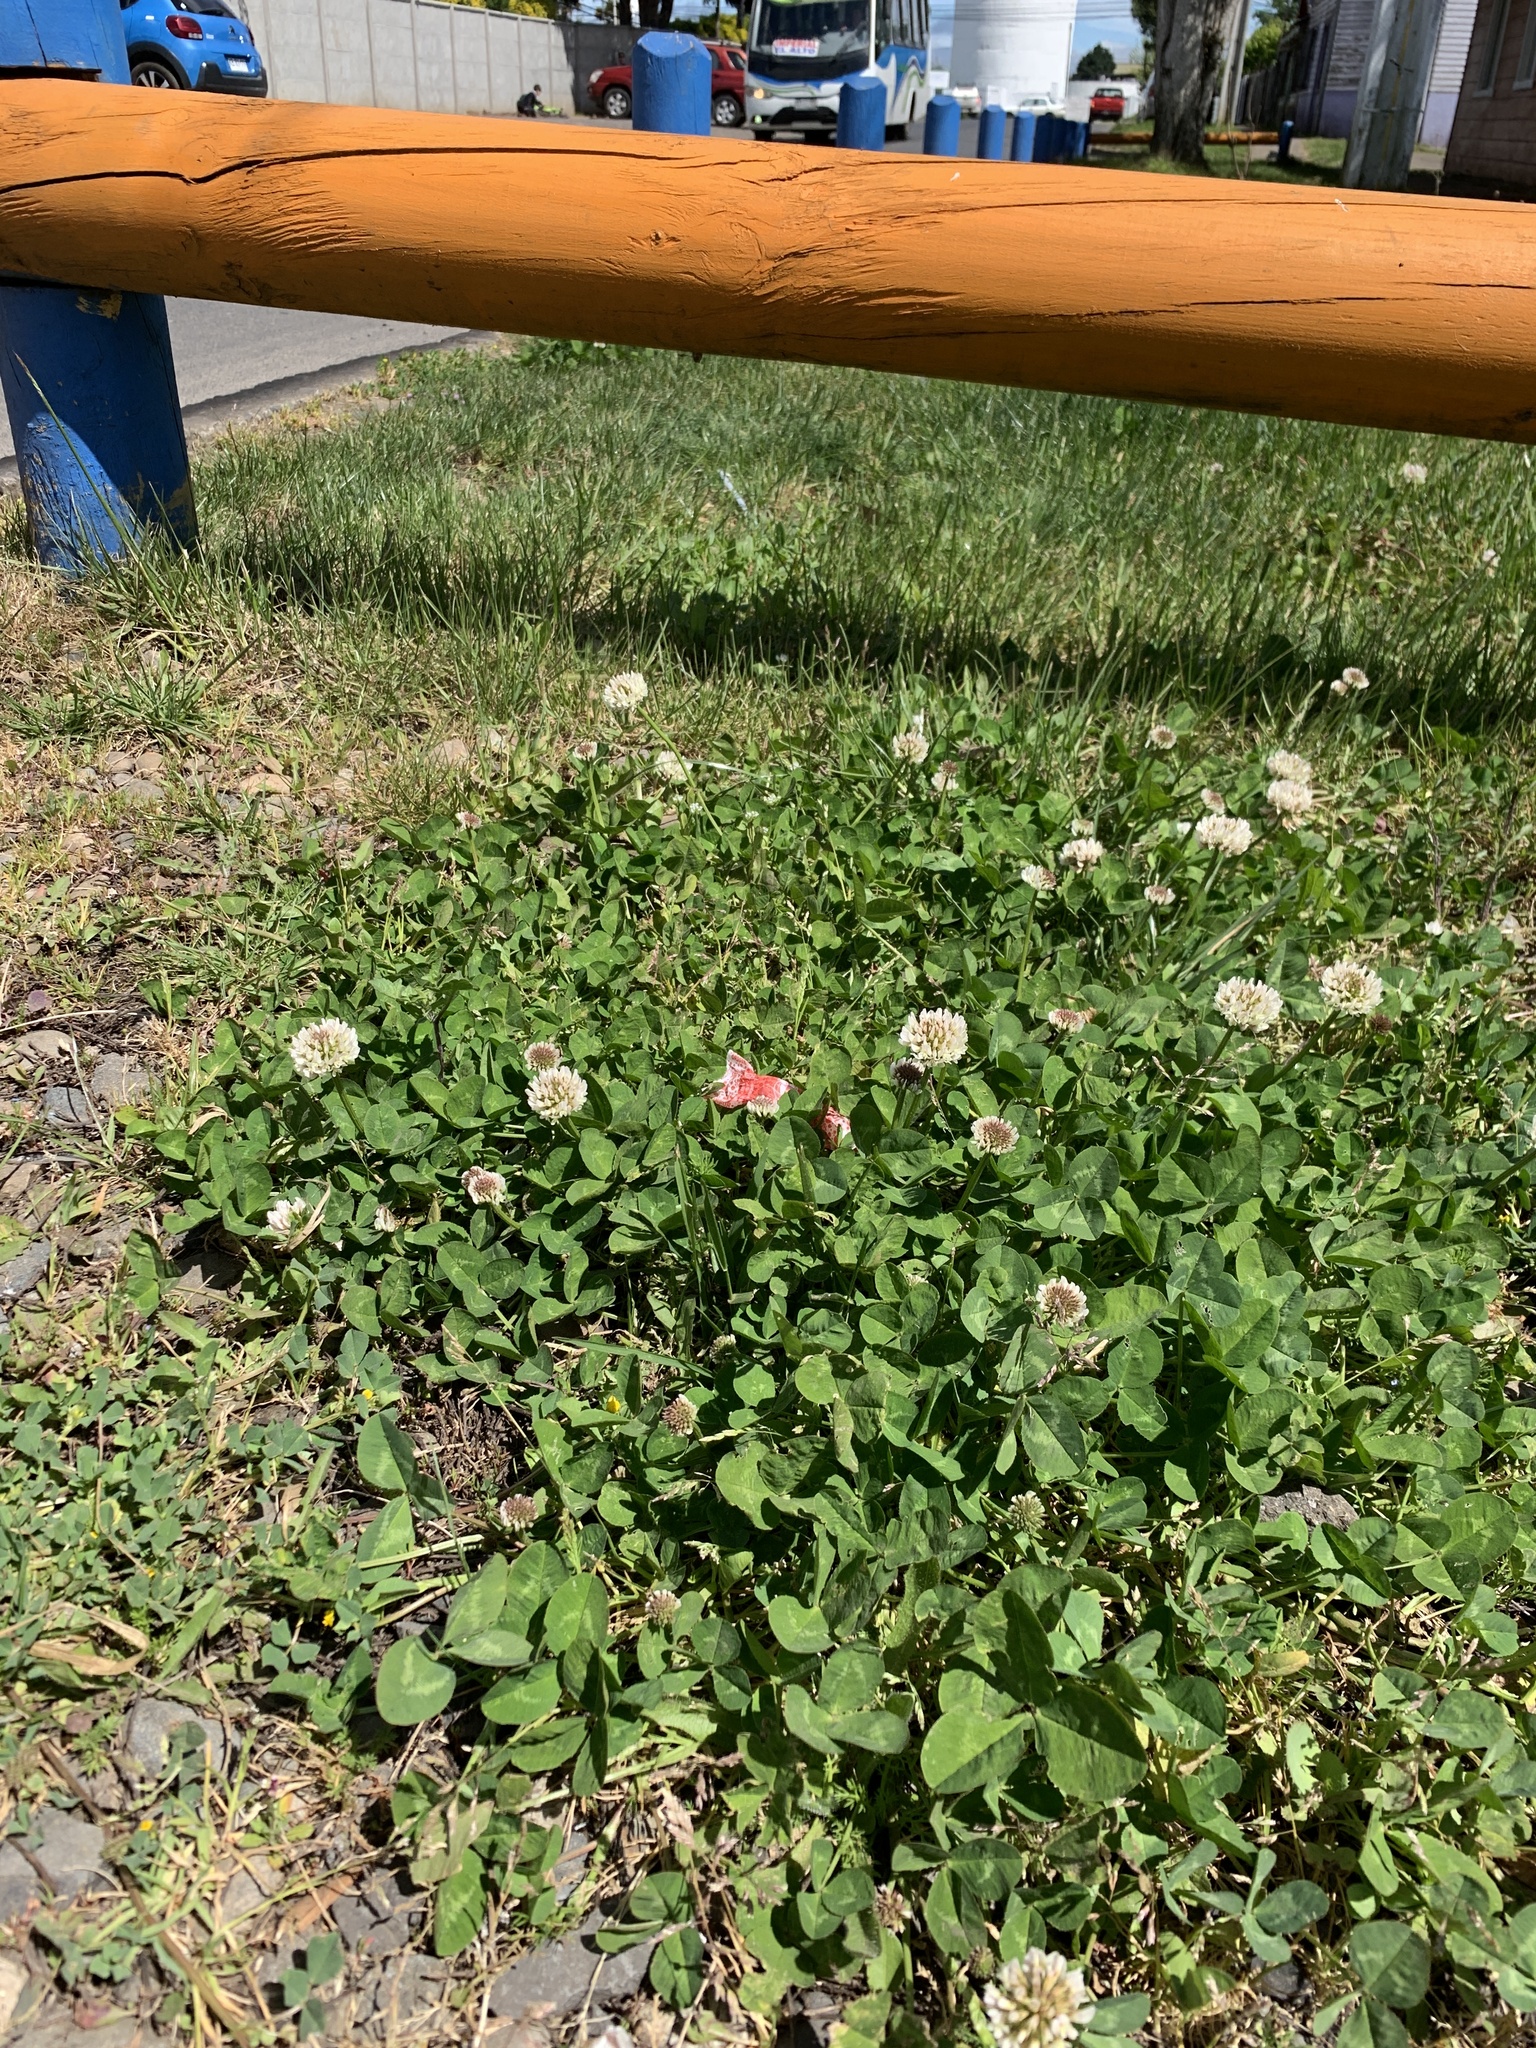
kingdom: Plantae
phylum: Tracheophyta
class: Magnoliopsida
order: Fabales
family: Fabaceae
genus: Trifolium
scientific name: Trifolium repens
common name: White clover
